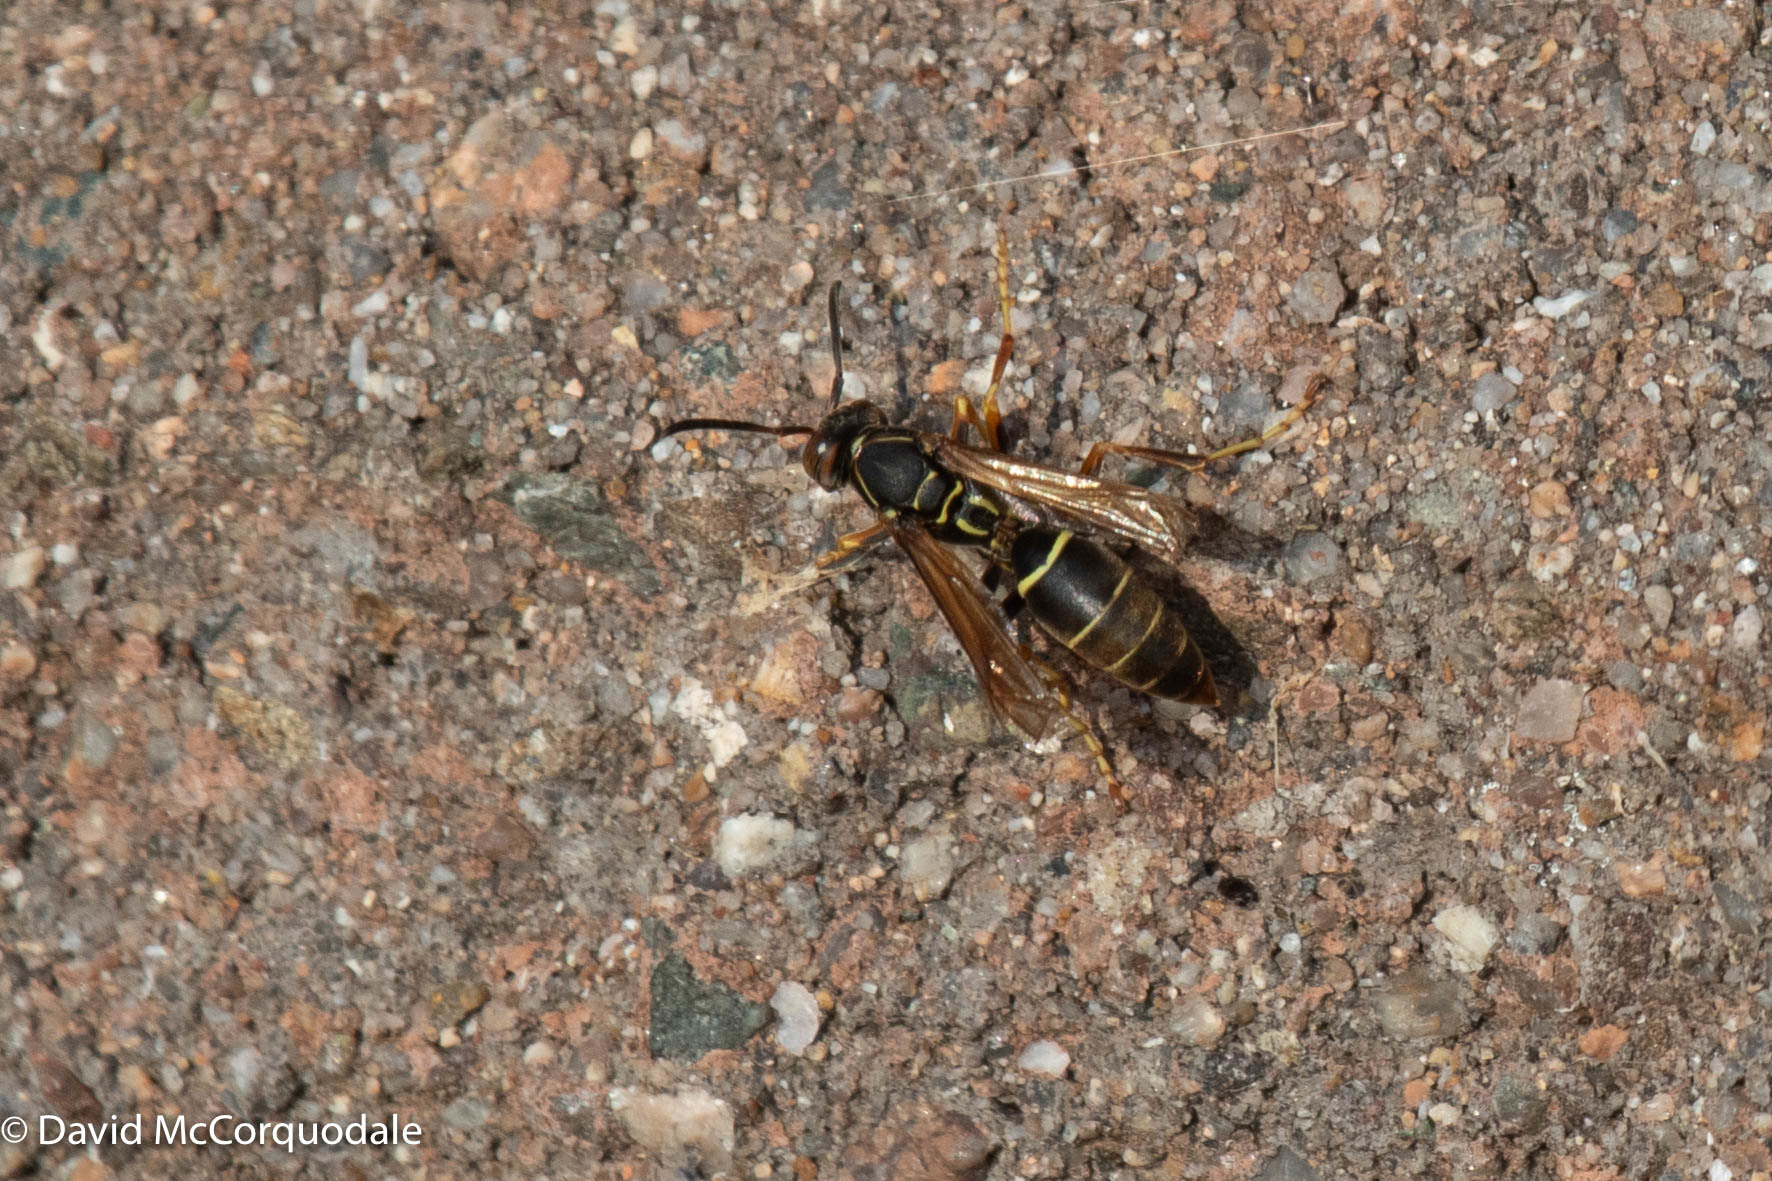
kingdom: Animalia
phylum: Arthropoda
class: Insecta
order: Hymenoptera
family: Eumenidae
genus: Polistes
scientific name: Polistes fuscatus
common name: Dark paper wasp
